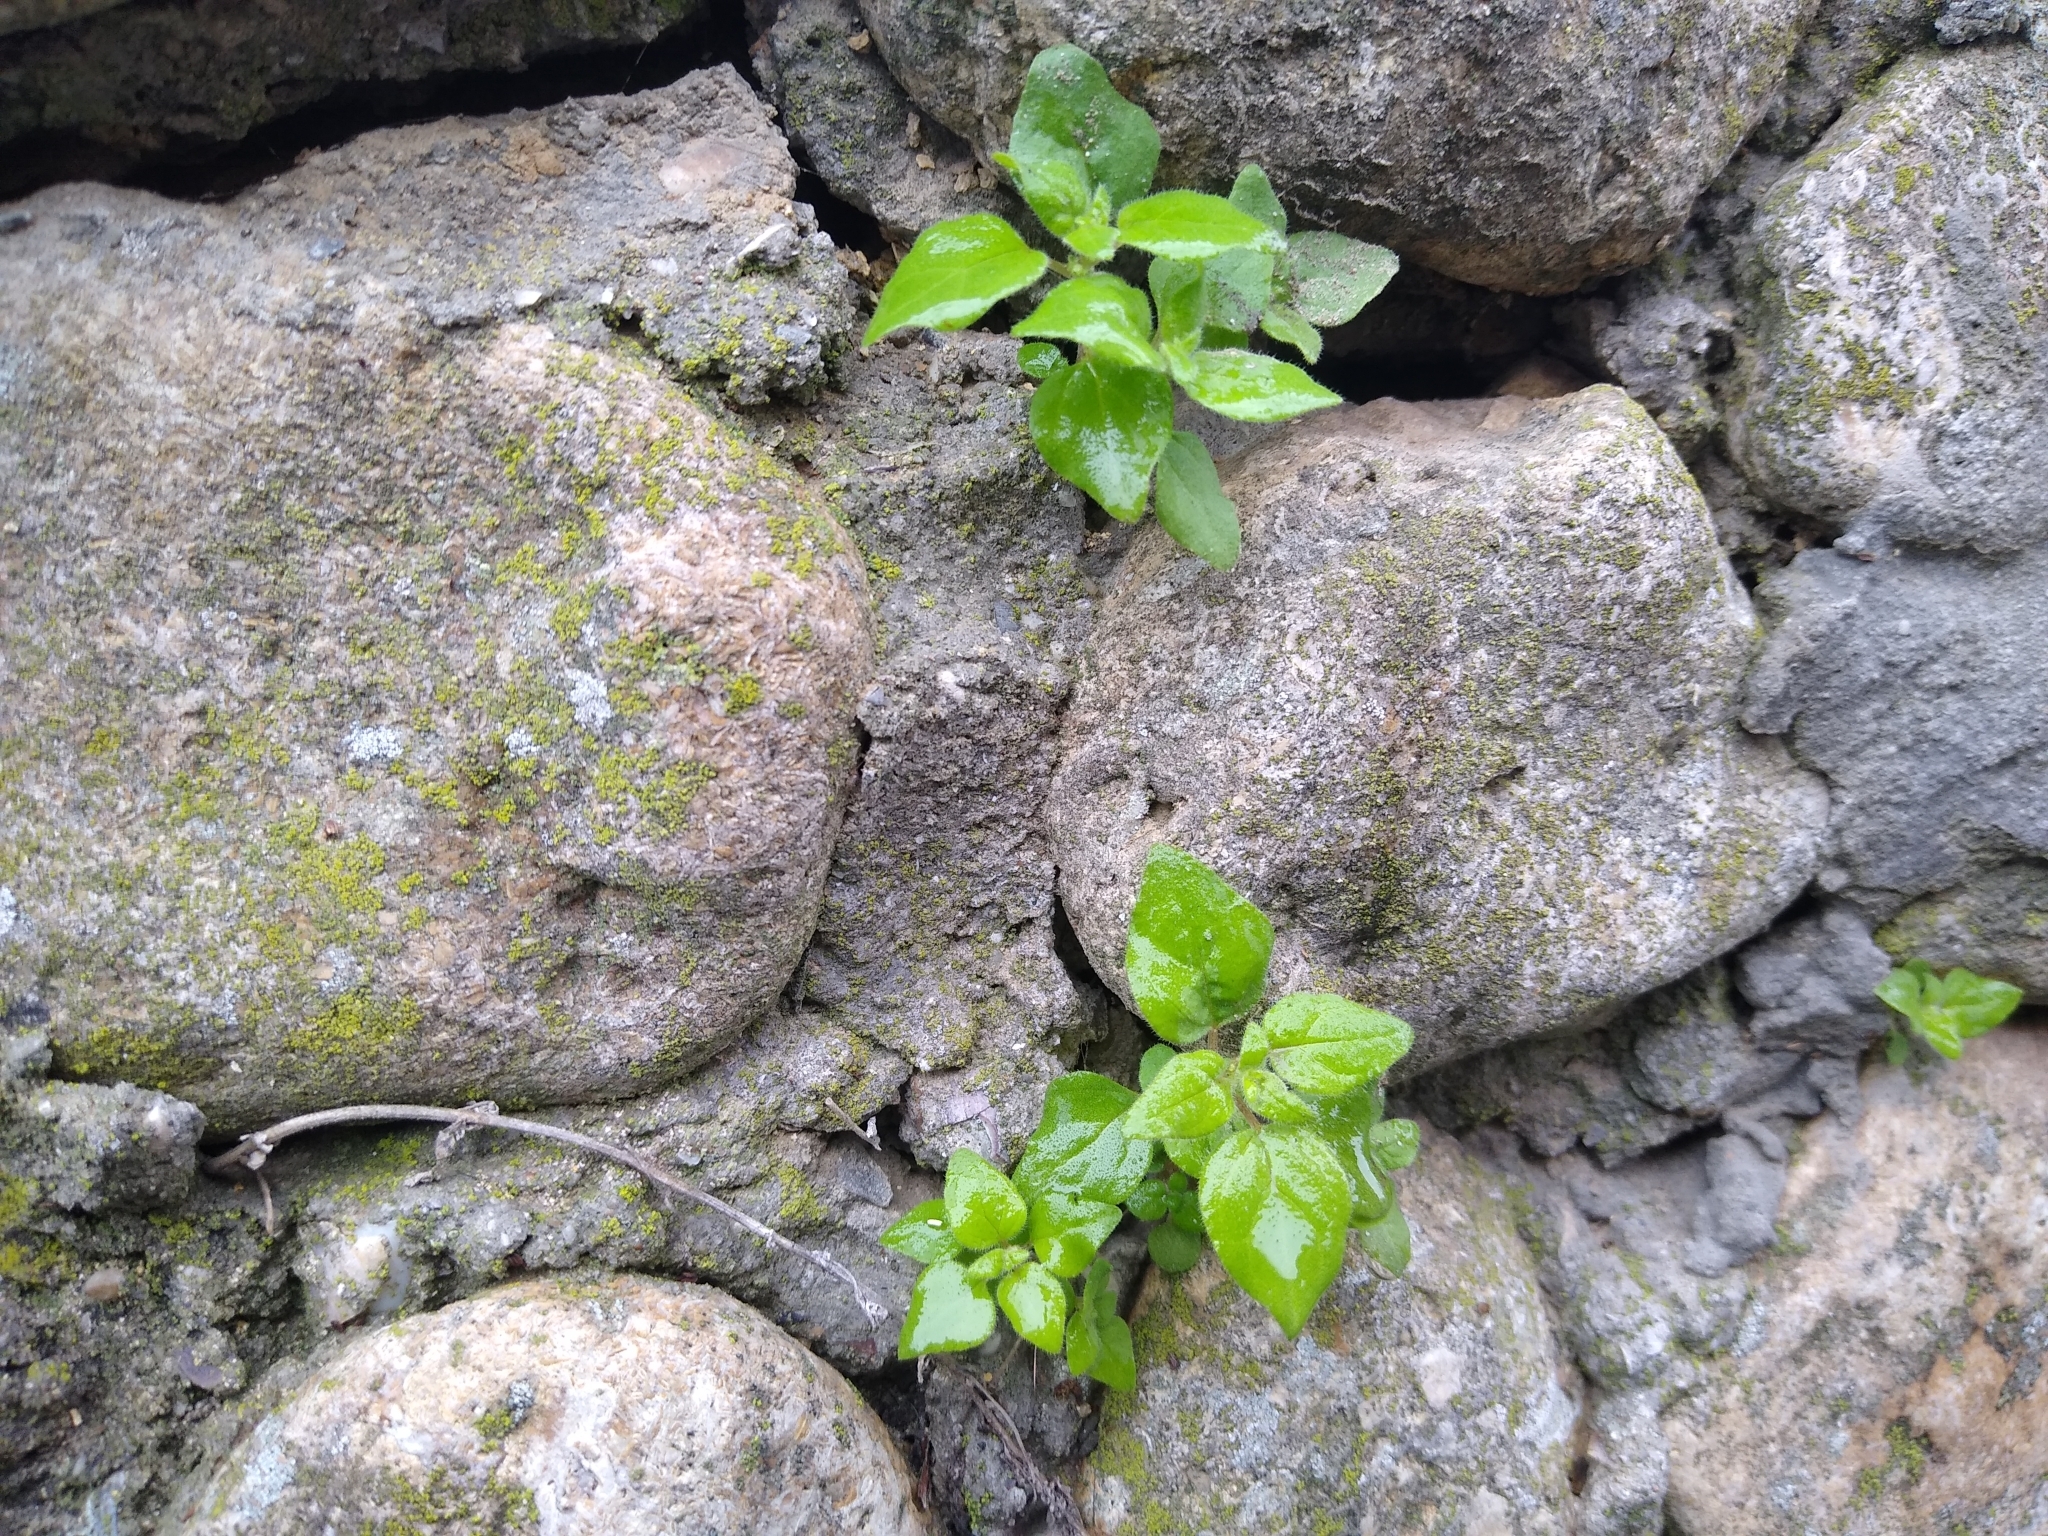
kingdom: Plantae
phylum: Tracheophyta
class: Magnoliopsida
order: Rosales
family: Urticaceae
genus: Parietaria
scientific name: Parietaria judaica
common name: Pellitory-of-the-wall
